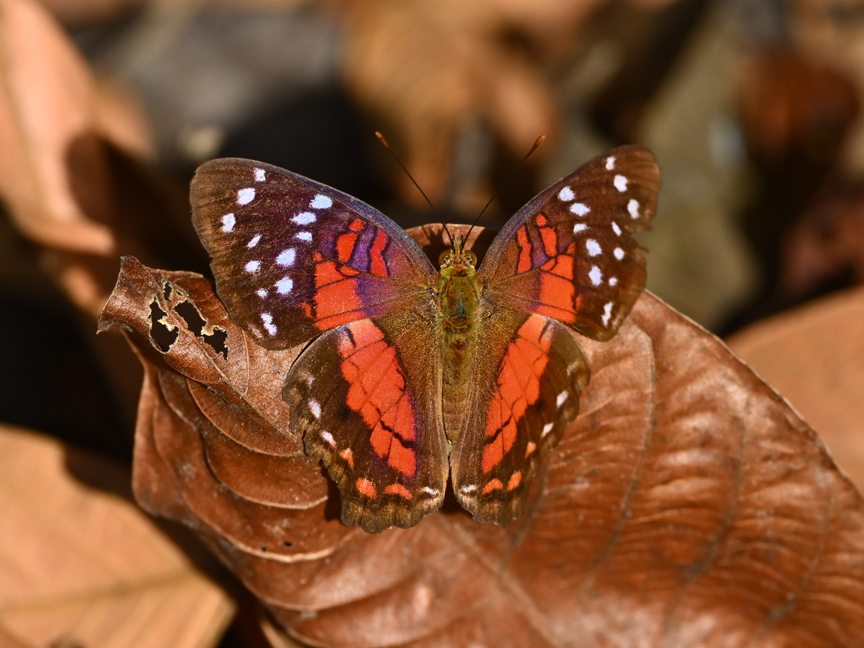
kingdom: Animalia
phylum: Arthropoda
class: Insecta
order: Lepidoptera
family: Nymphalidae
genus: Anartia
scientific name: Anartia amathea
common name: Red peacock
